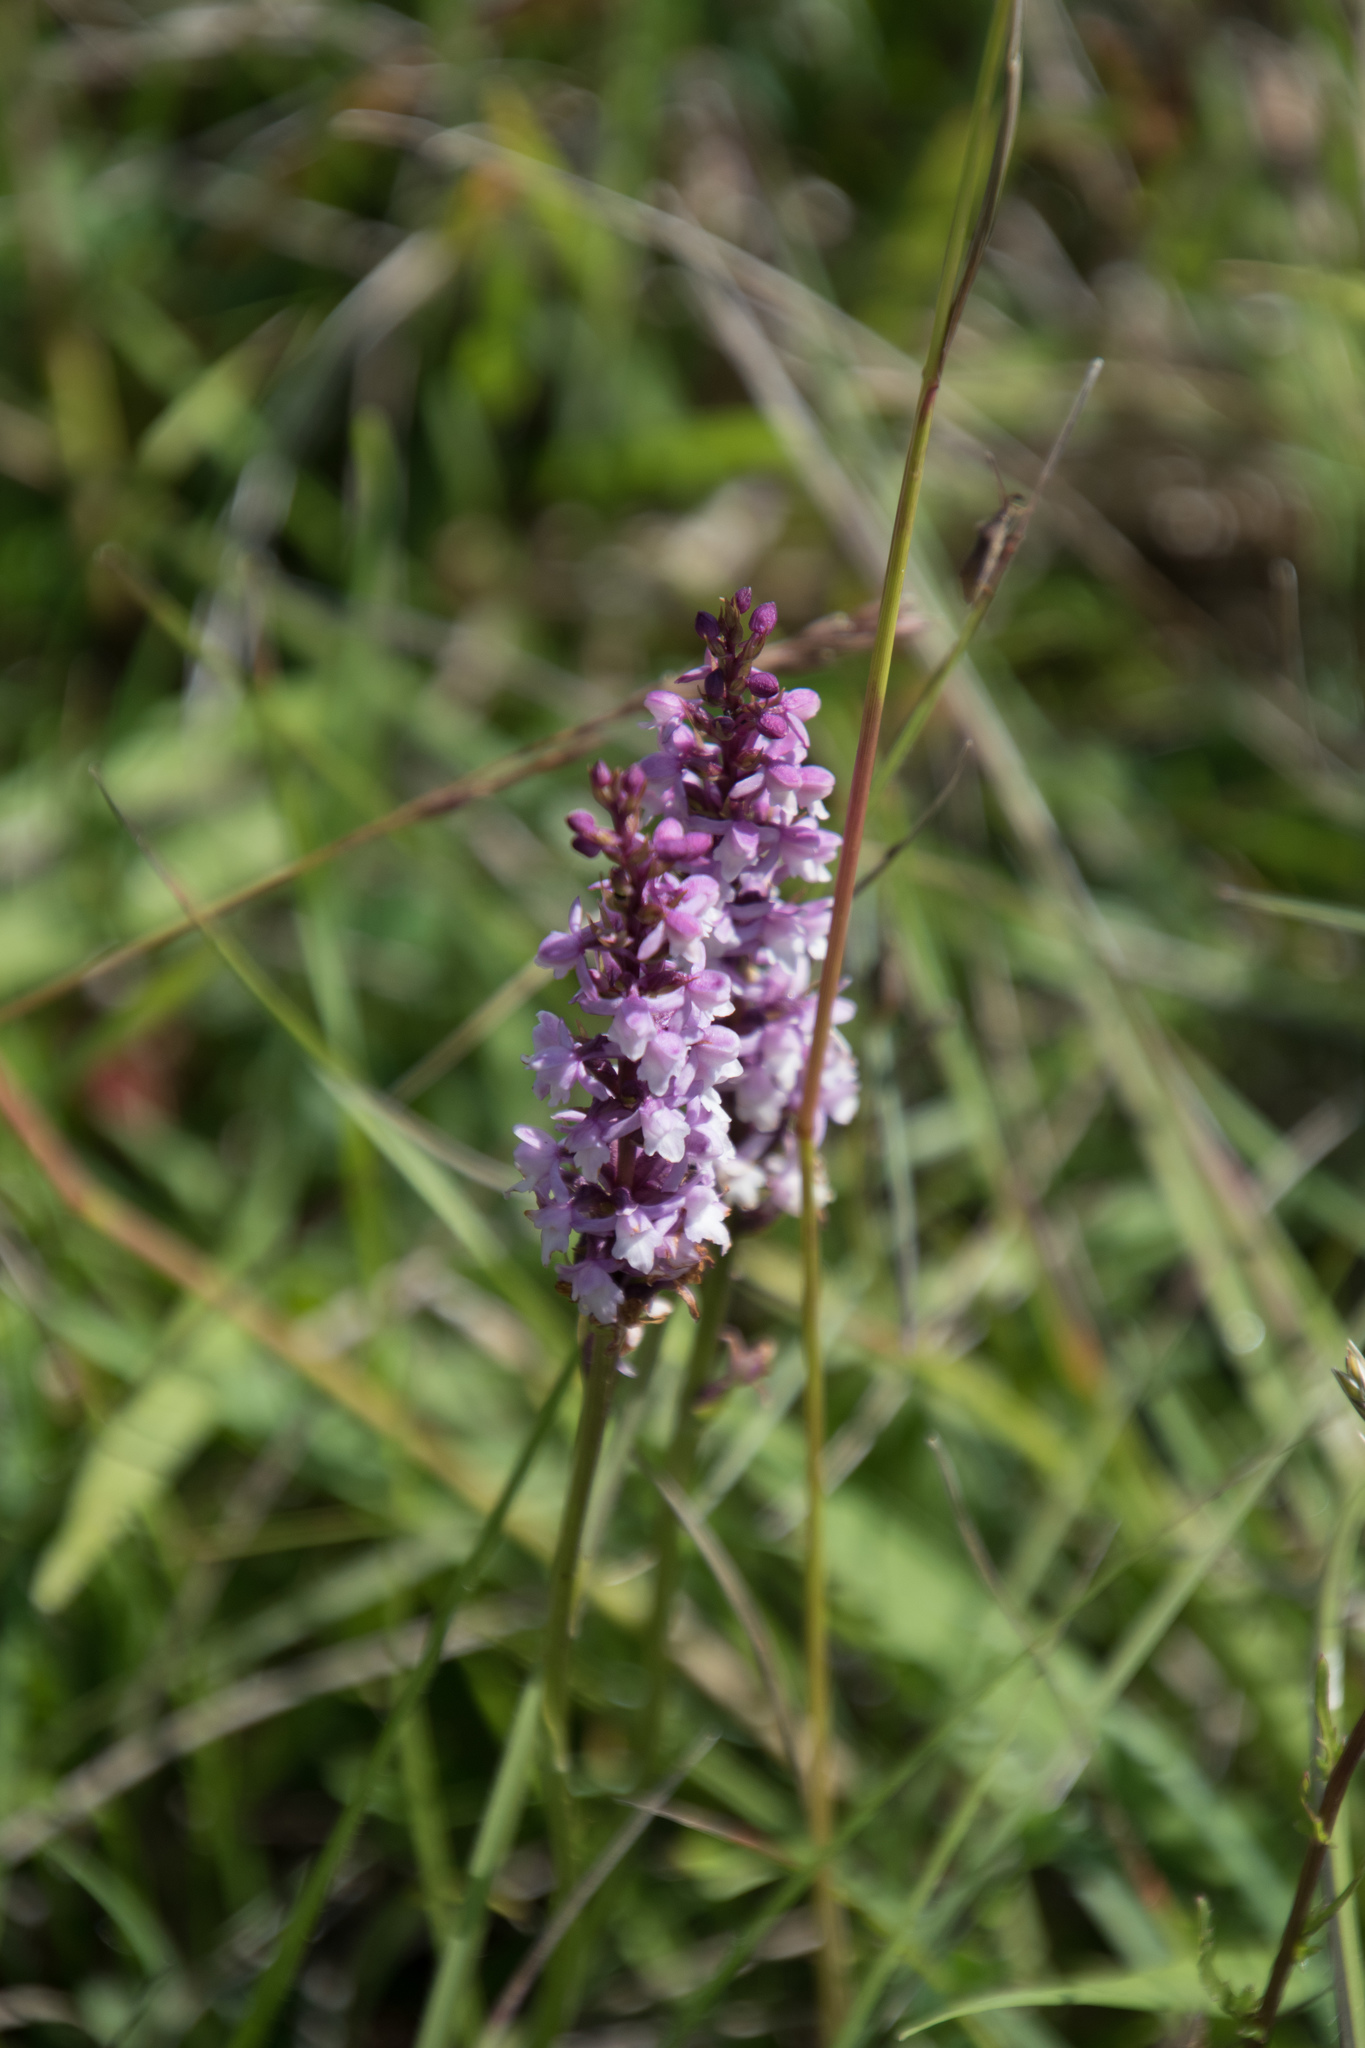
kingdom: Plantae
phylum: Tracheophyta
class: Liliopsida
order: Asparagales
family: Orchidaceae
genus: Gymnadenia
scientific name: Gymnadenia odoratissima
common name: Scented gymnadenia
